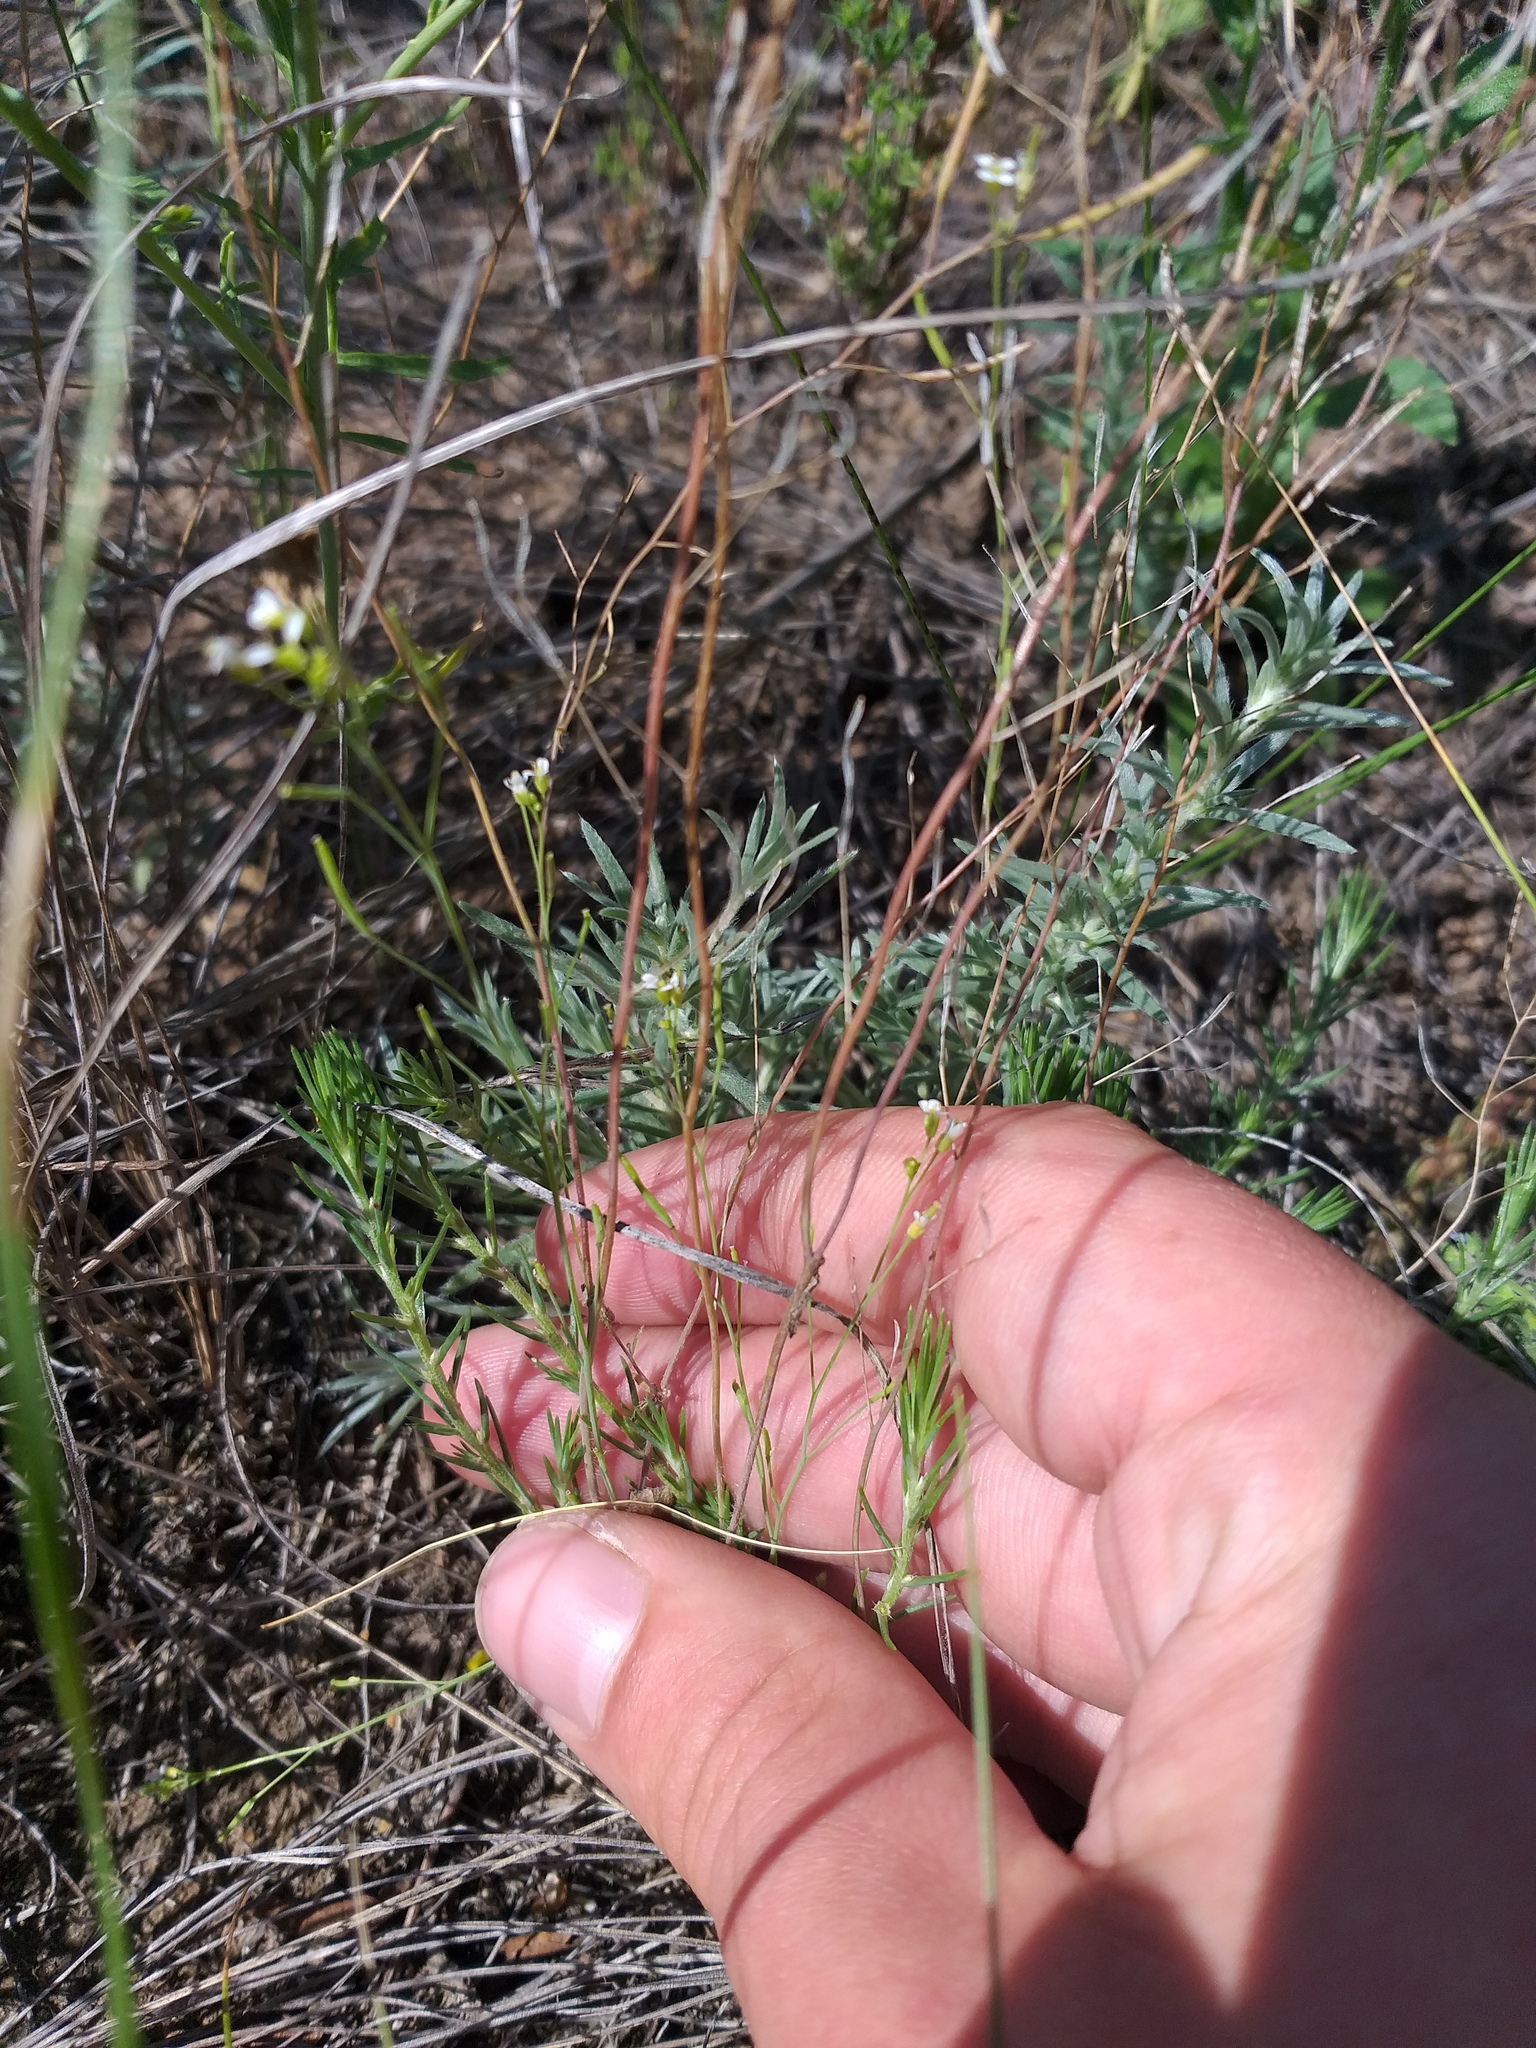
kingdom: Plantae
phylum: Tracheophyta
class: Magnoliopsida
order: Brassicales
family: Brassicaceae
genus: Arabidopsis
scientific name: Arabidopsis thaliana
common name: Thale cress
